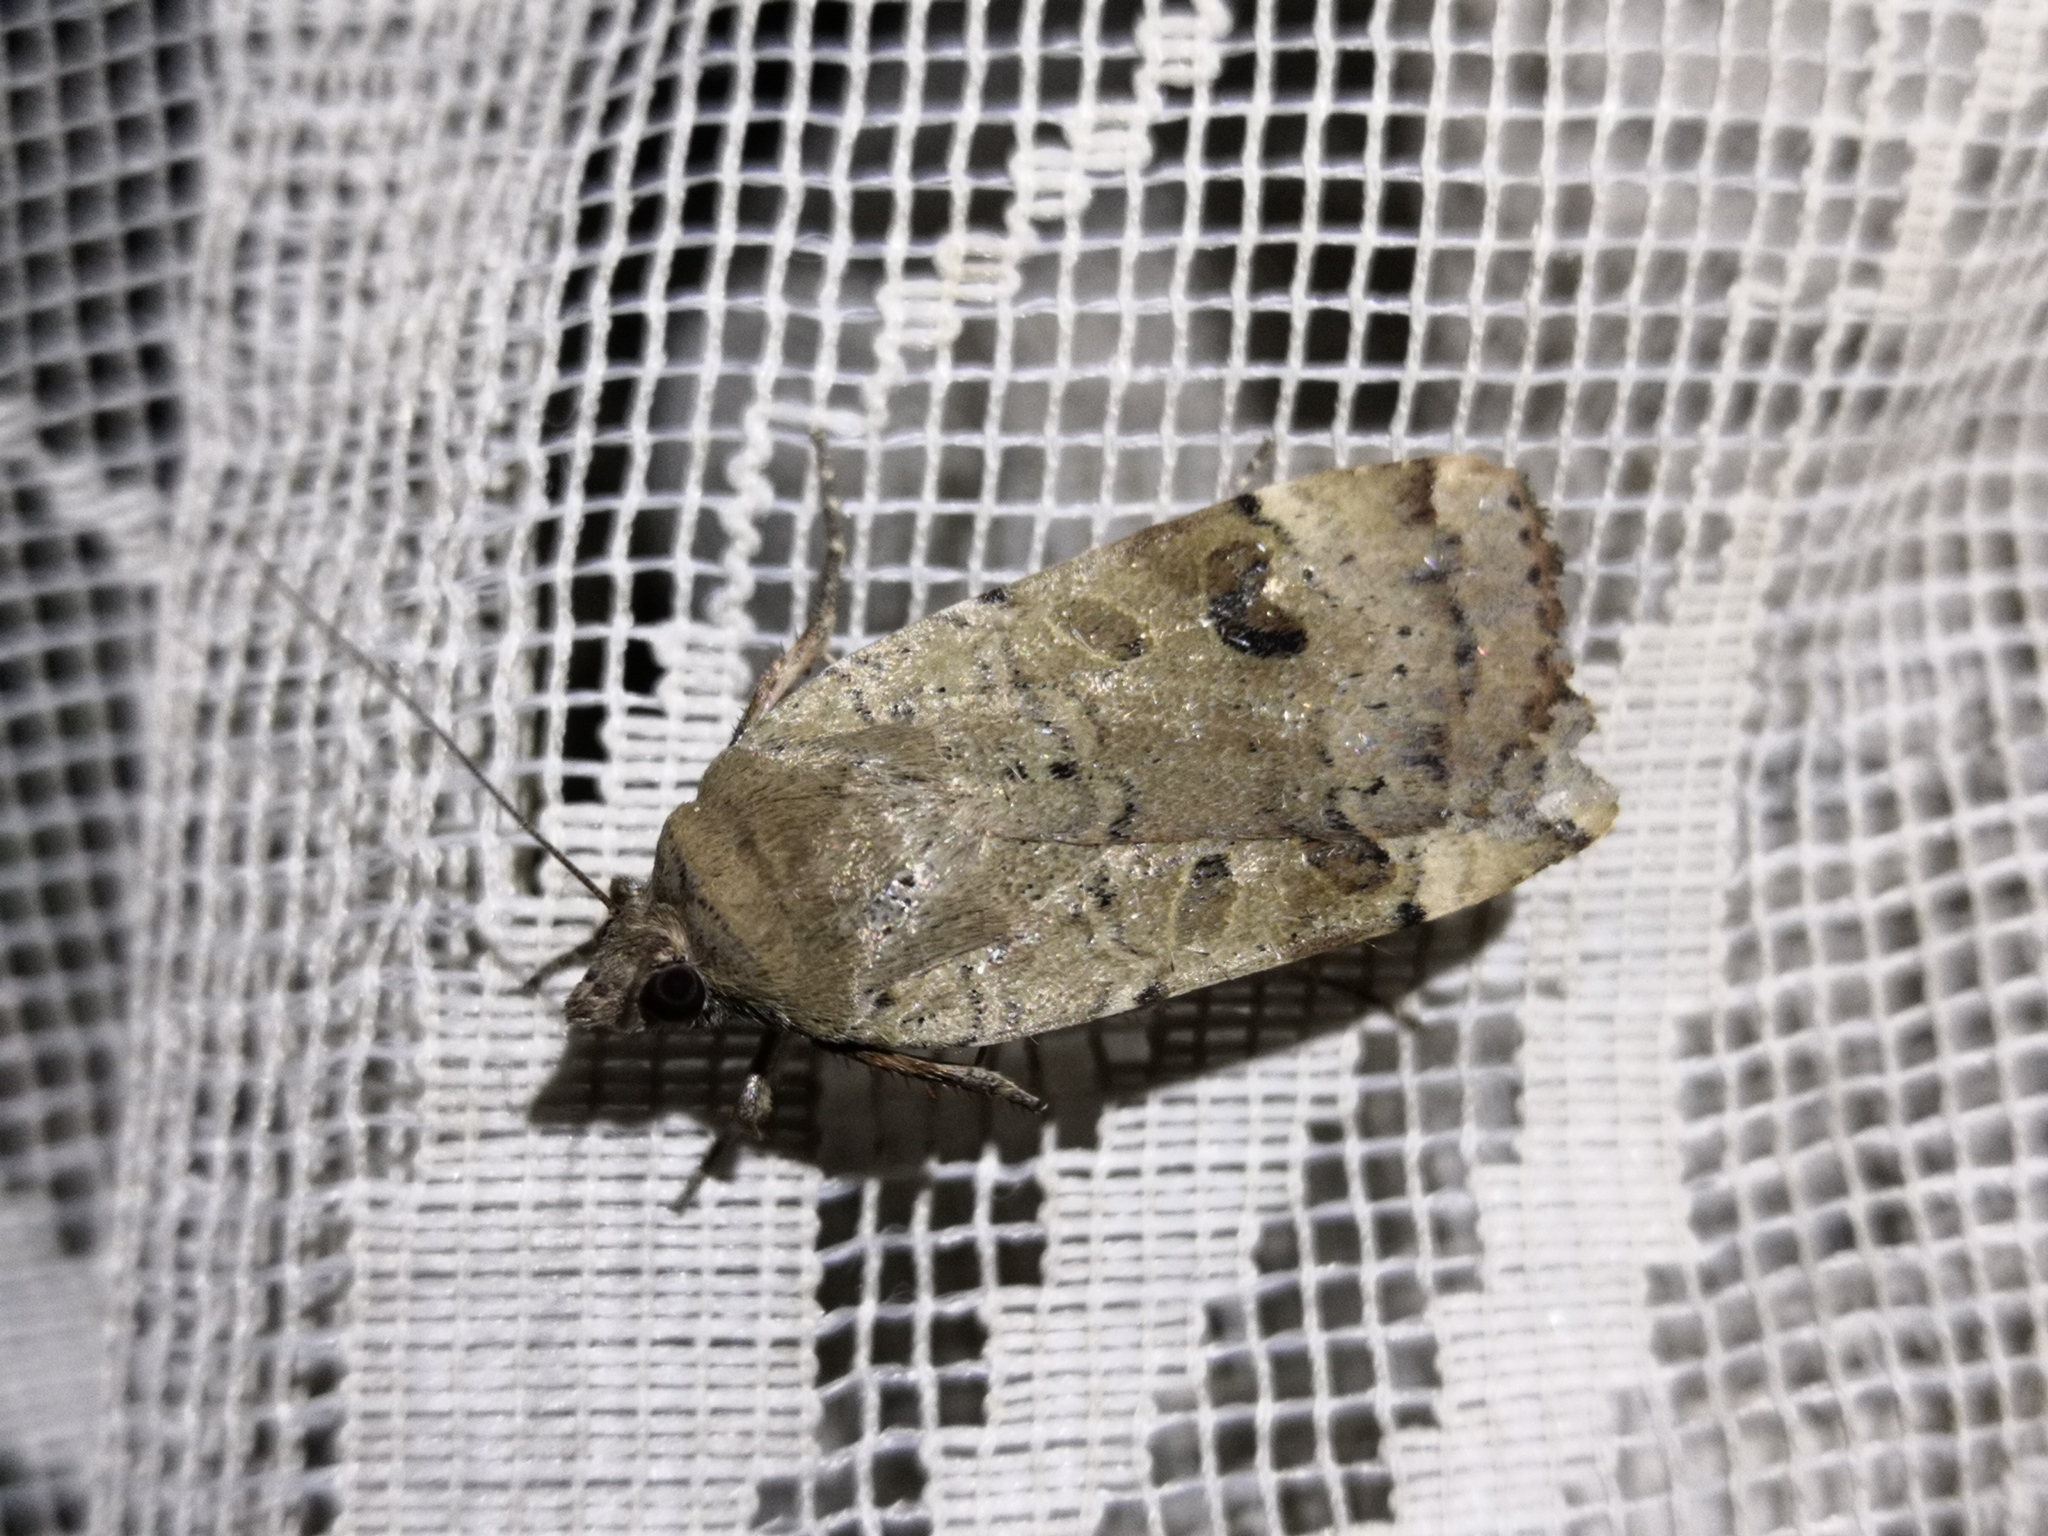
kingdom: Animalia
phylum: Arthropoda
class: Insecta
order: Lepidoptera
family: Noctuidae
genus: Noctua
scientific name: Noctua interposita
